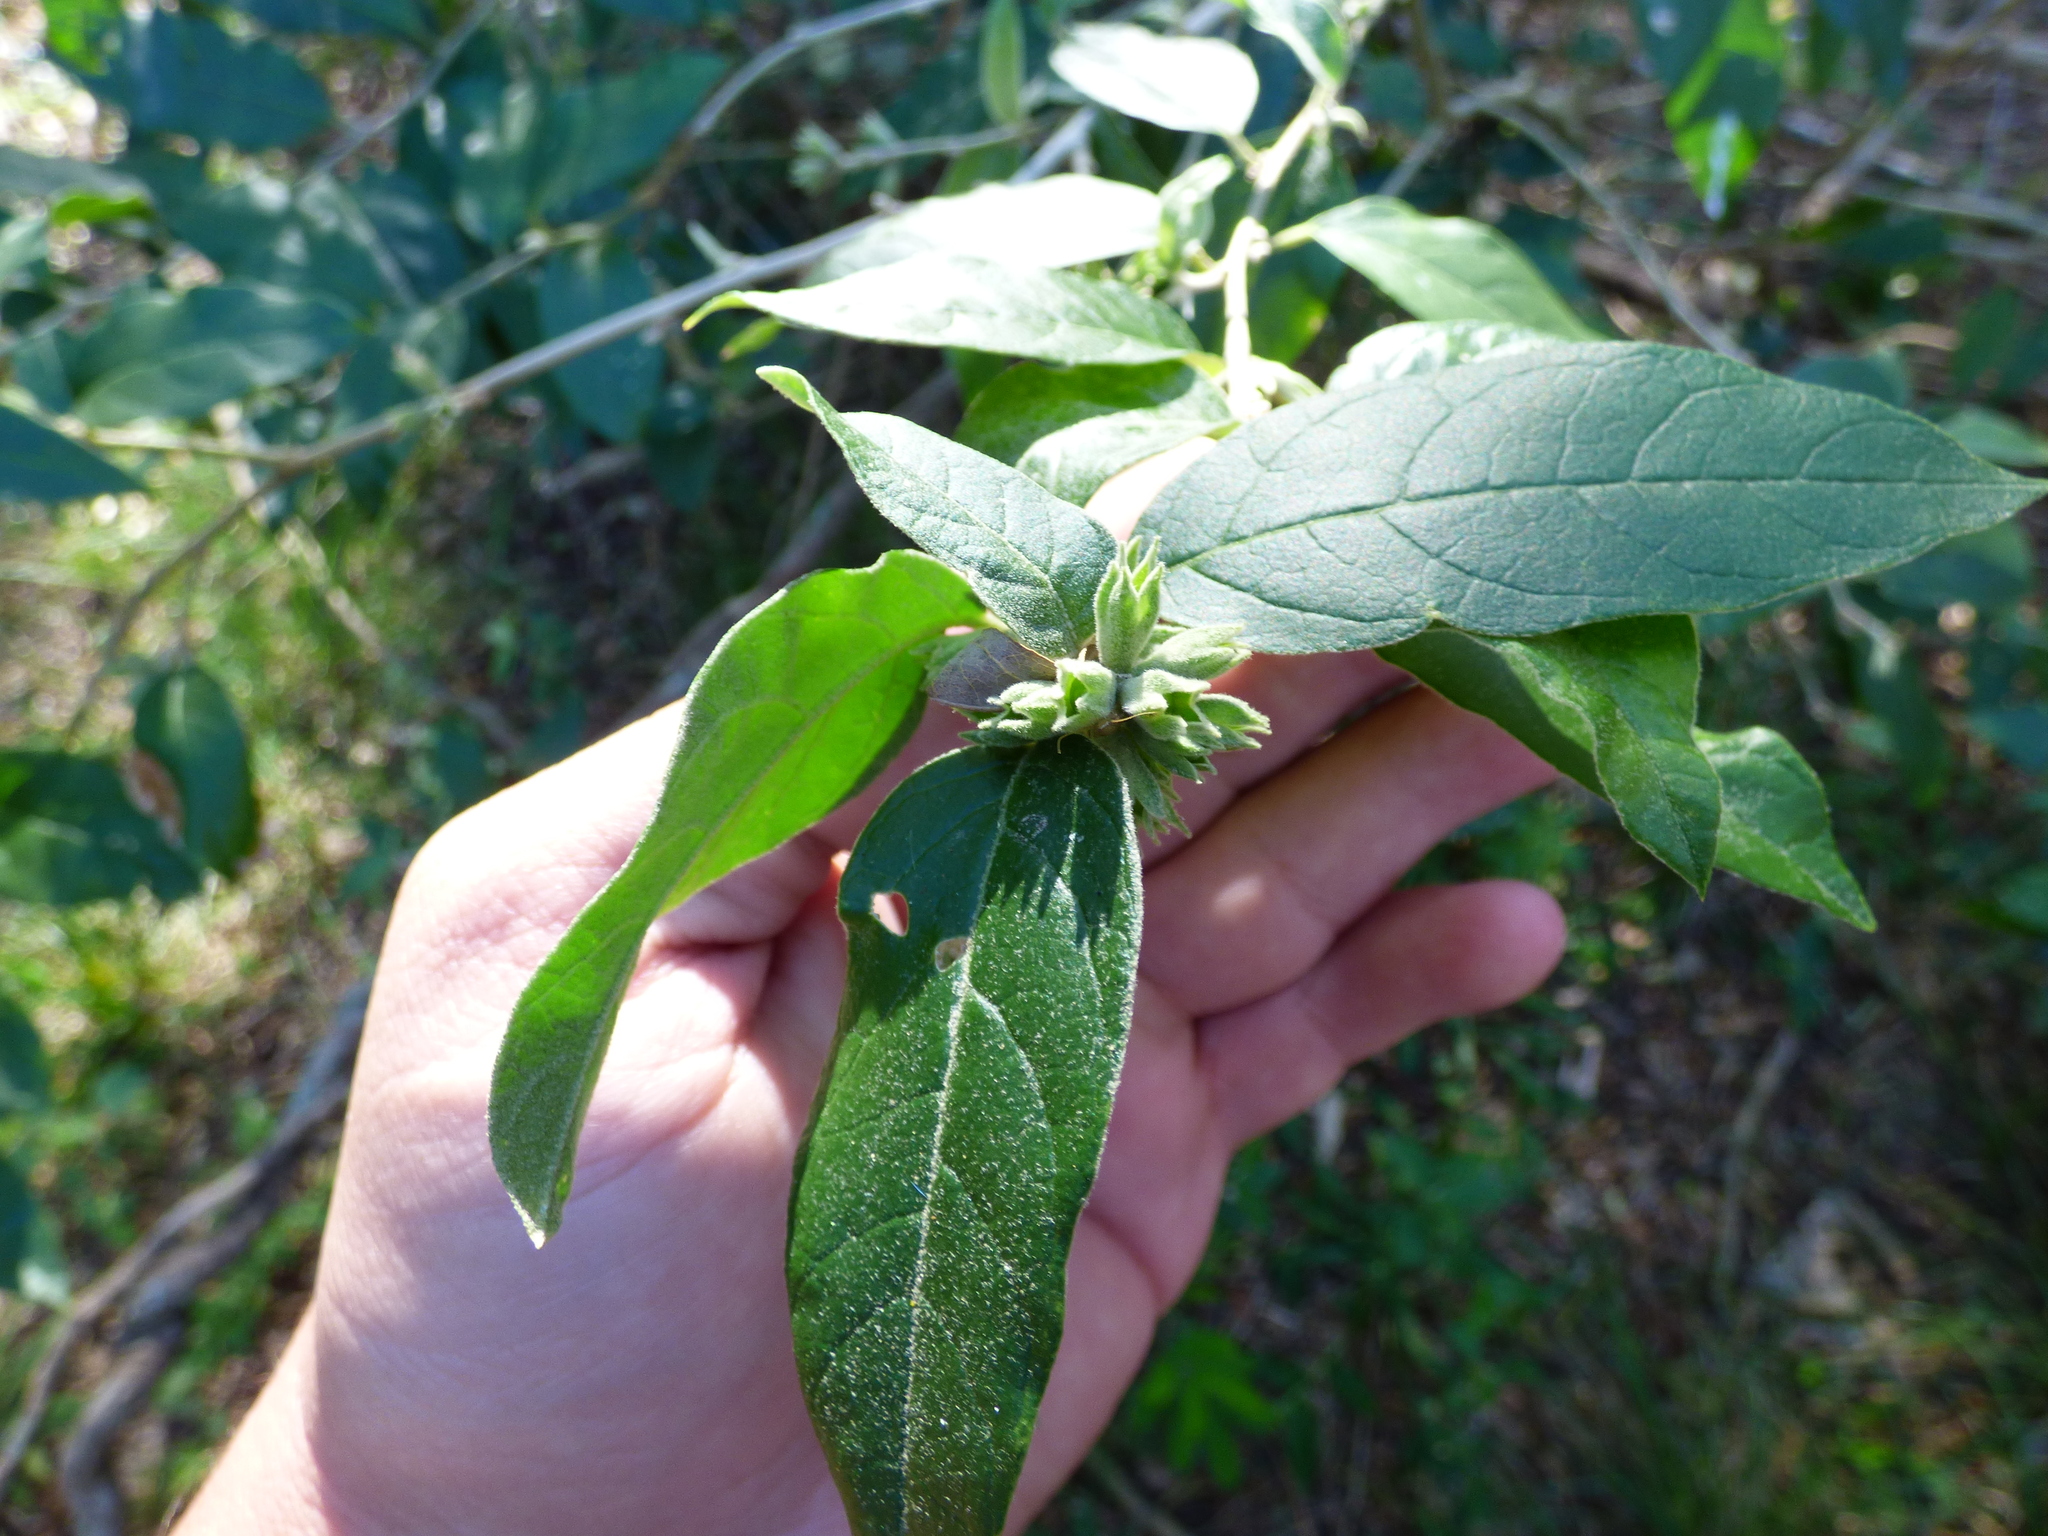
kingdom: Plantae
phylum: Tracheophyta
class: Magnoliopsida
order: Solanales
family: Solanaceae
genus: Cestrum
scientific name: Cestrum strigillatum
